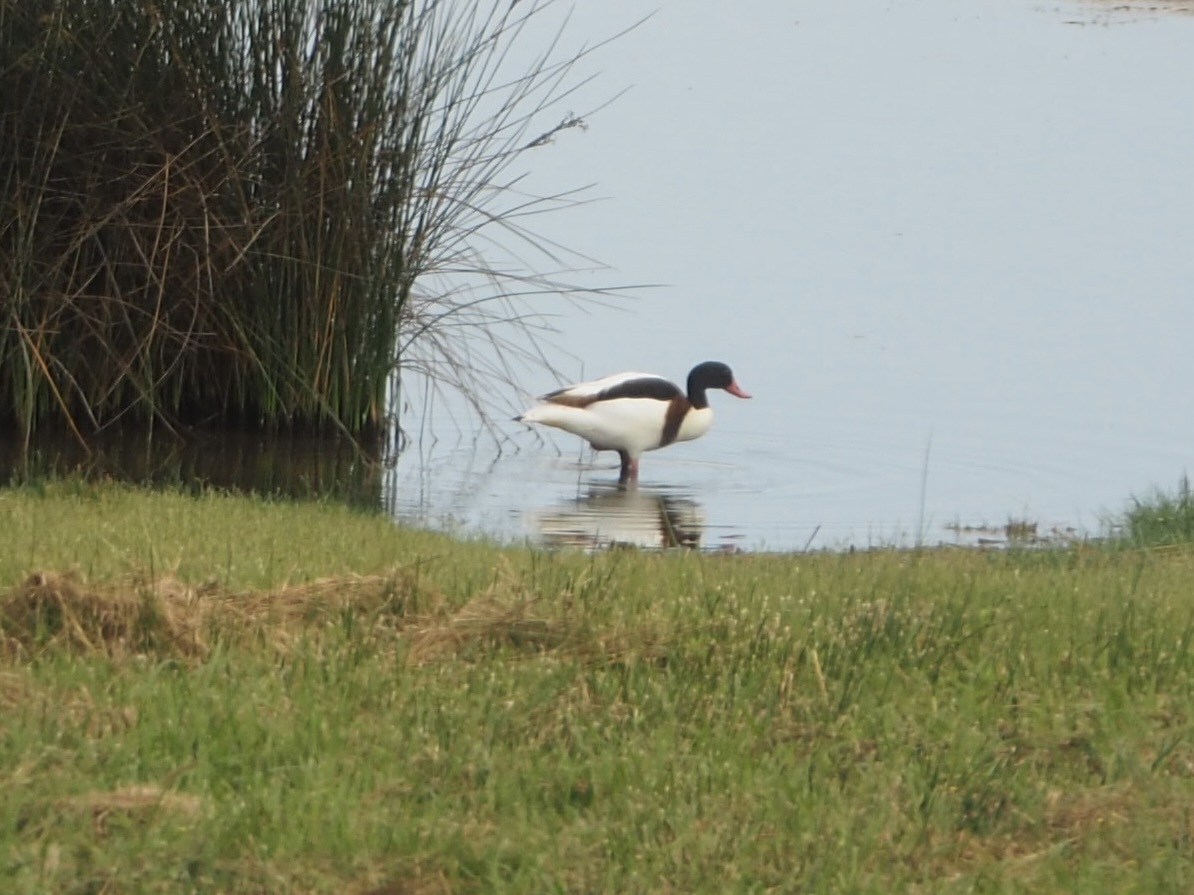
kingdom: Animalia
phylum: Chordata
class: Aves
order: Anseriformes
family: Anatidae
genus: Tadorna
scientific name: Tadorna tadorna
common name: Common shelduck
